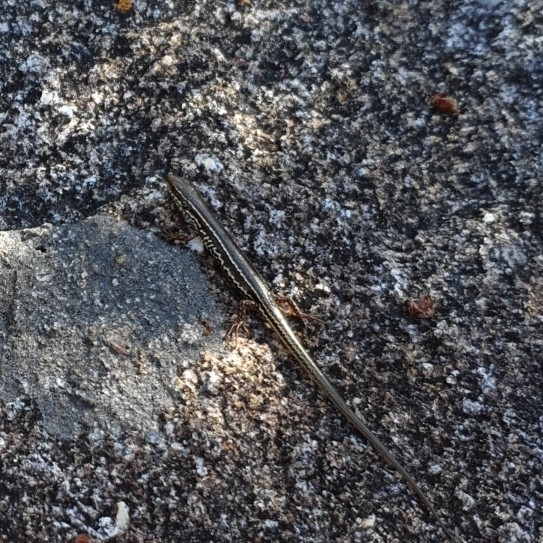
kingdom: Animalia
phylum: Chordata
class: Squamata
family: Scincidae
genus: Ctenotus
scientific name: Ctenotus labillardieri
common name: Common south-west ctenotus
